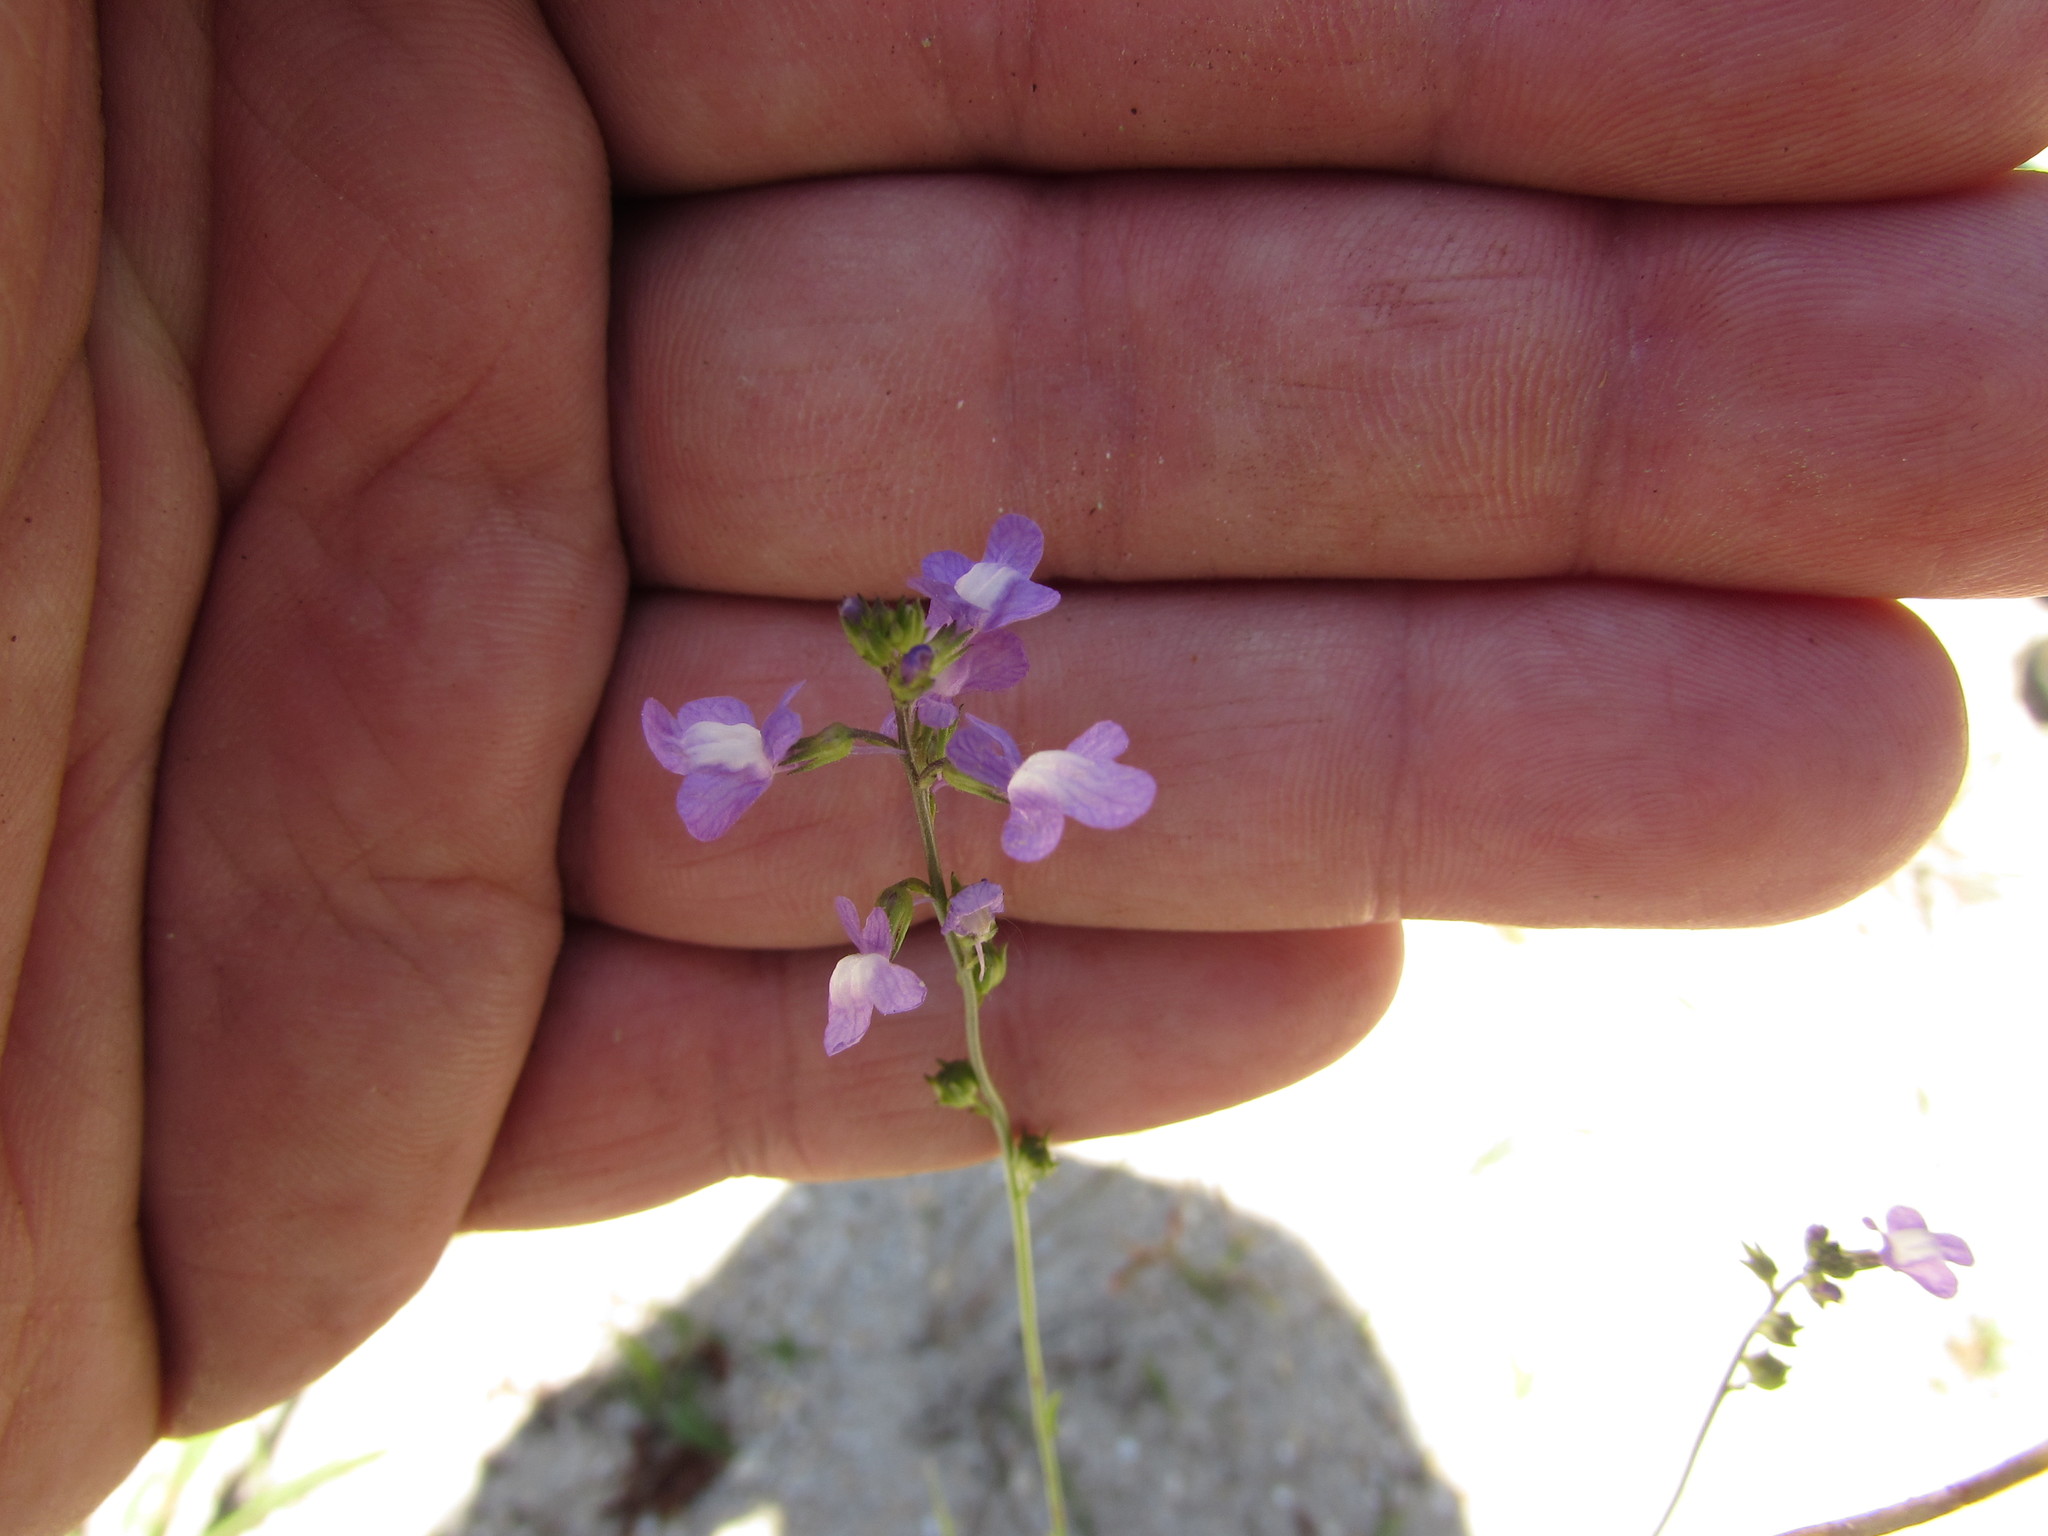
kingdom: Plantae
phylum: Tracheophyta
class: Magnoliopsida
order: Lamiales
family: Plantaginaceae
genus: Nuttallanthus
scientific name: Nuttallanthus canadensis
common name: Blue toadflax
